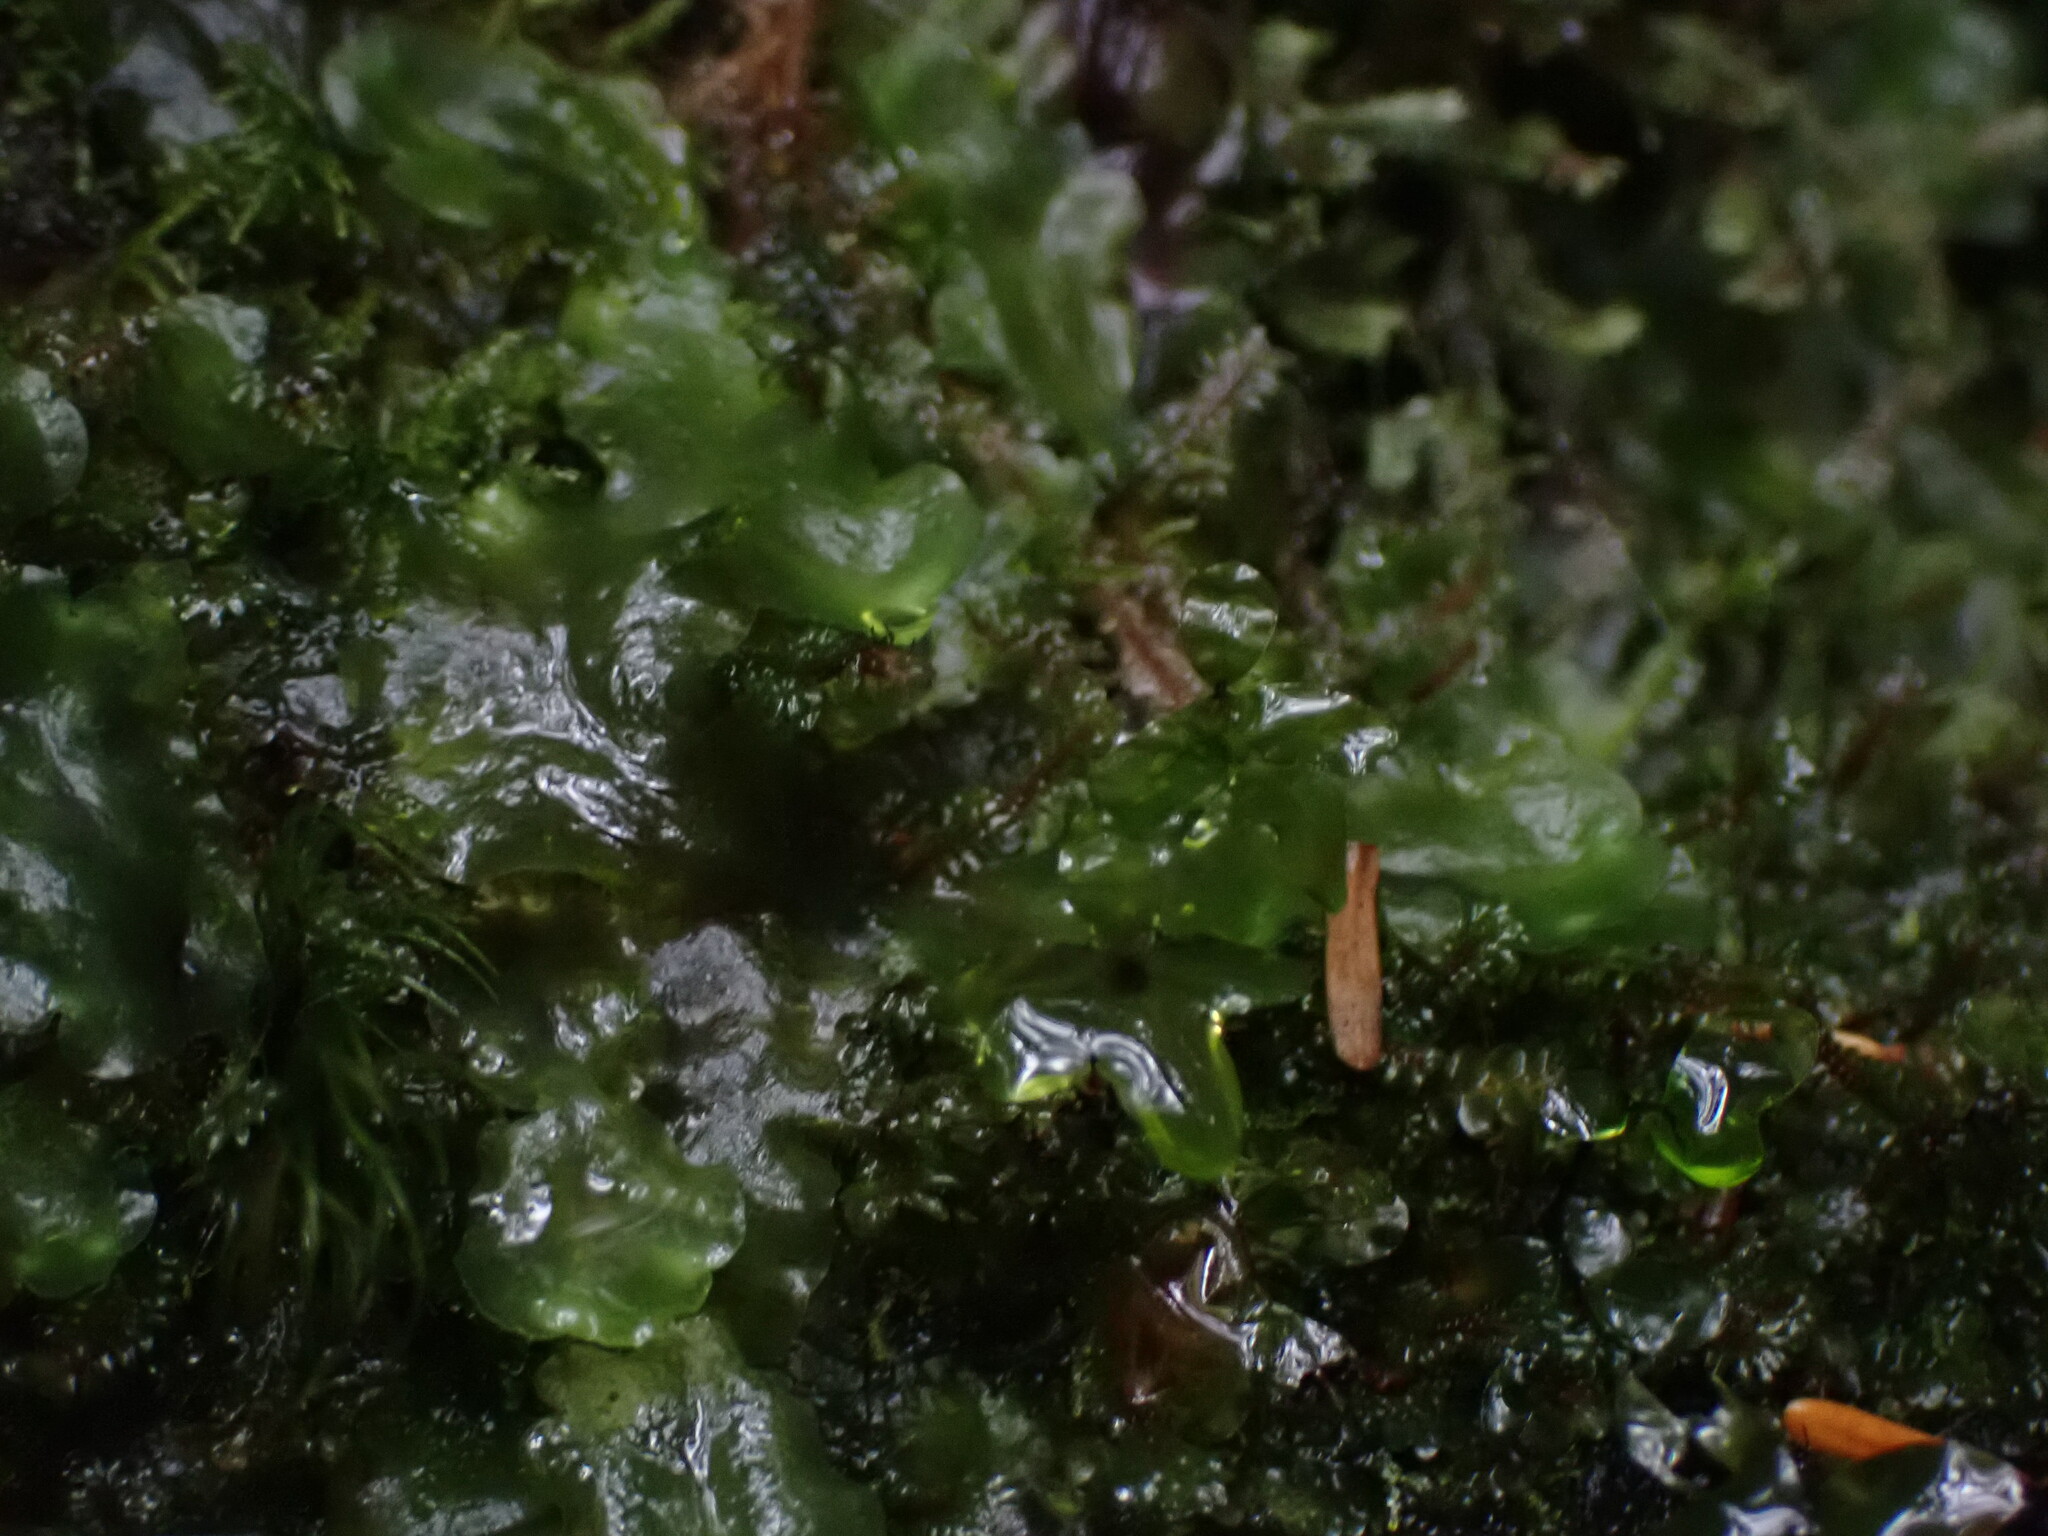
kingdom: Plantae
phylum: Marchantiophyta
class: Jungermanniopsida
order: Pelliales
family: Pelliaceae
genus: Pellia
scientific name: Pellia neesiana
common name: Nees  pellia
